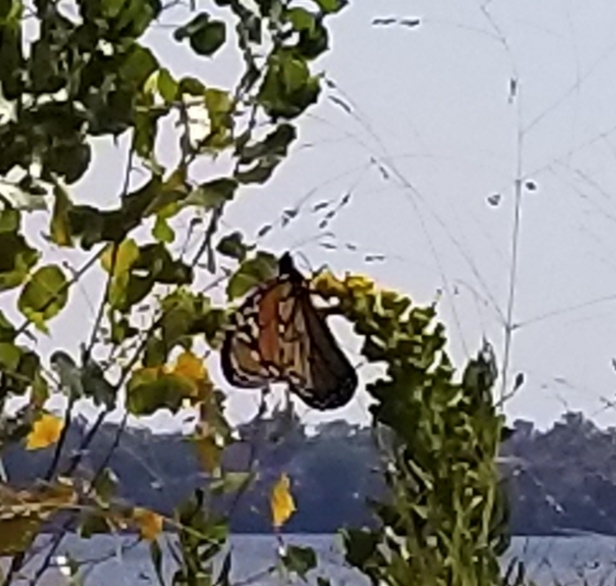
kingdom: Animalia
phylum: Arthropoda
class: Insecta
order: Lepidoptera
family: Nymphalidae
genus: Danaus
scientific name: Danaus plexippus
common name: Monarch
